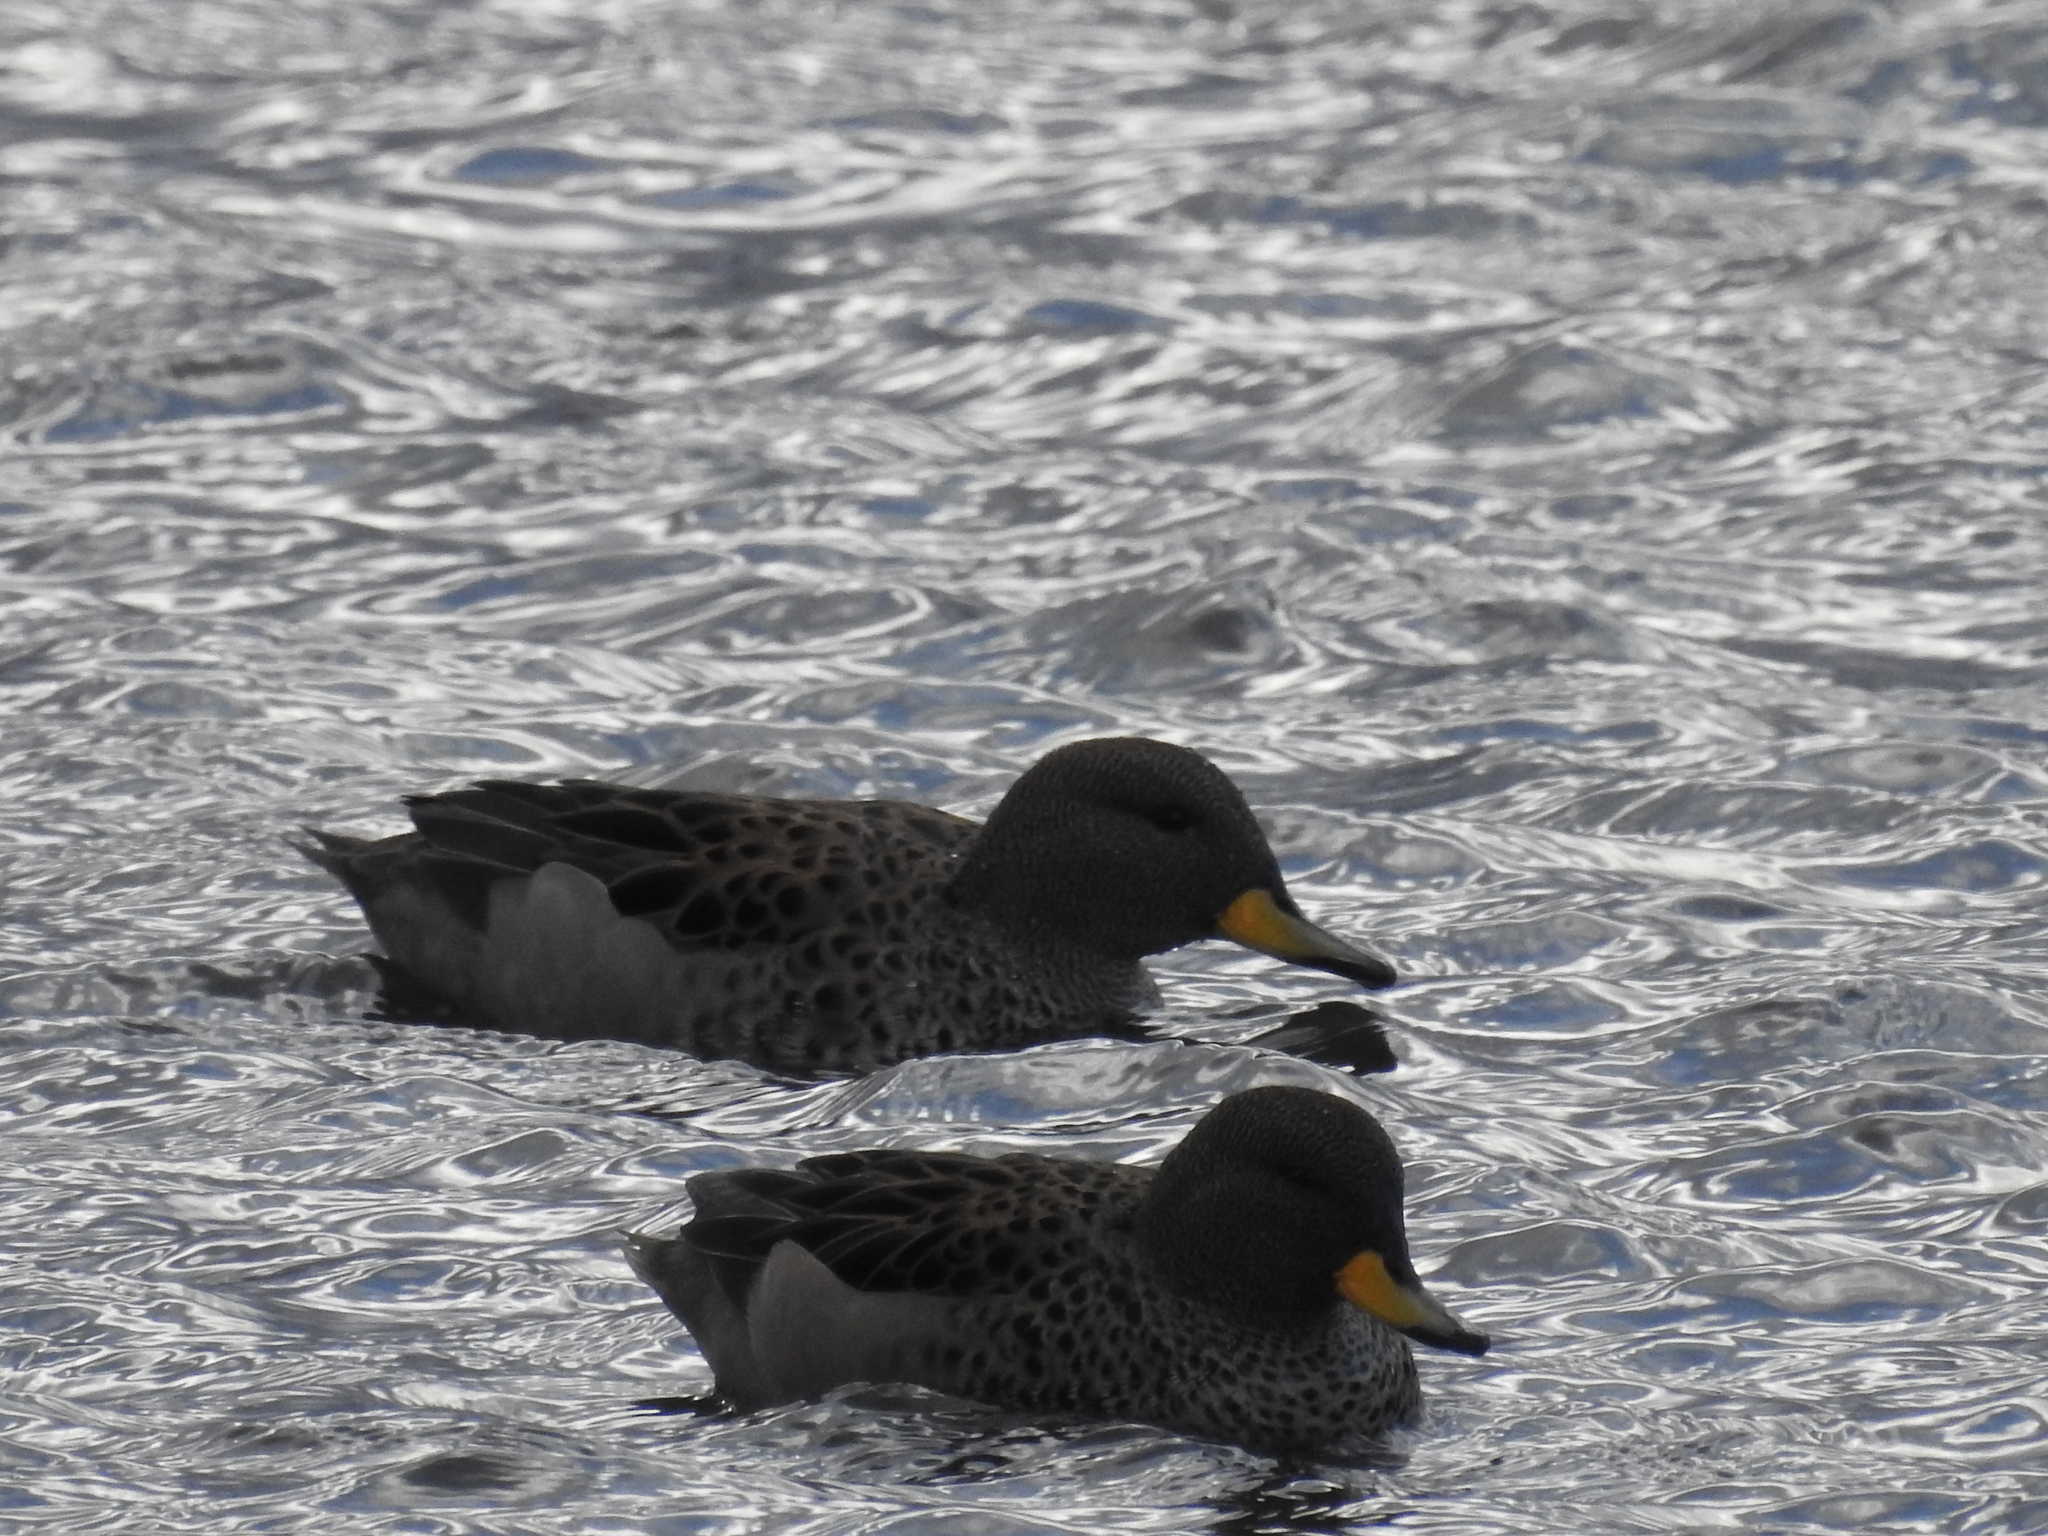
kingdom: Animalia
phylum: Chordata
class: Aves
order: Anseriformes
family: Anatidae
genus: Anas
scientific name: Anas flavirostris
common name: Yellow-billed teal
